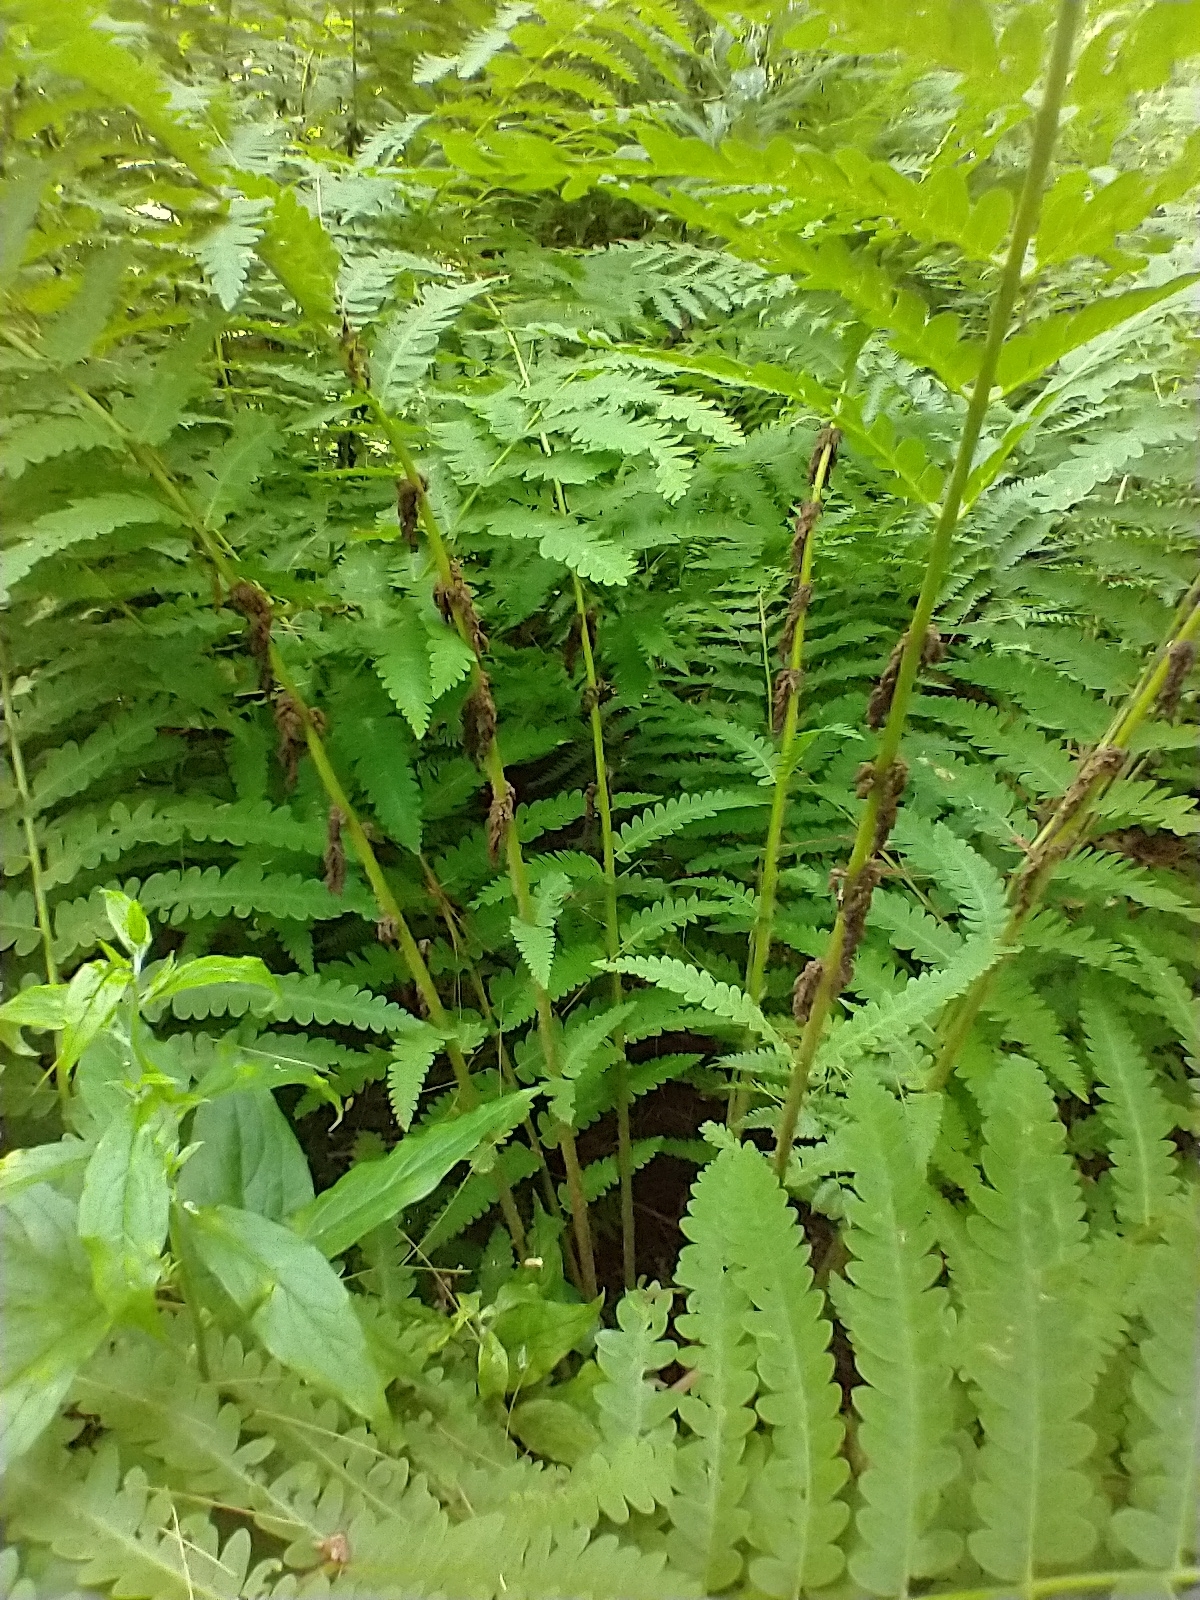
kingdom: Plantae
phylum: Tracheophyta
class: Polypodiopsida
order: Osmundales
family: Osmundaceae
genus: Claytosmunda
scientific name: Claytosmunda claytoniana
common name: Clayton's fern
